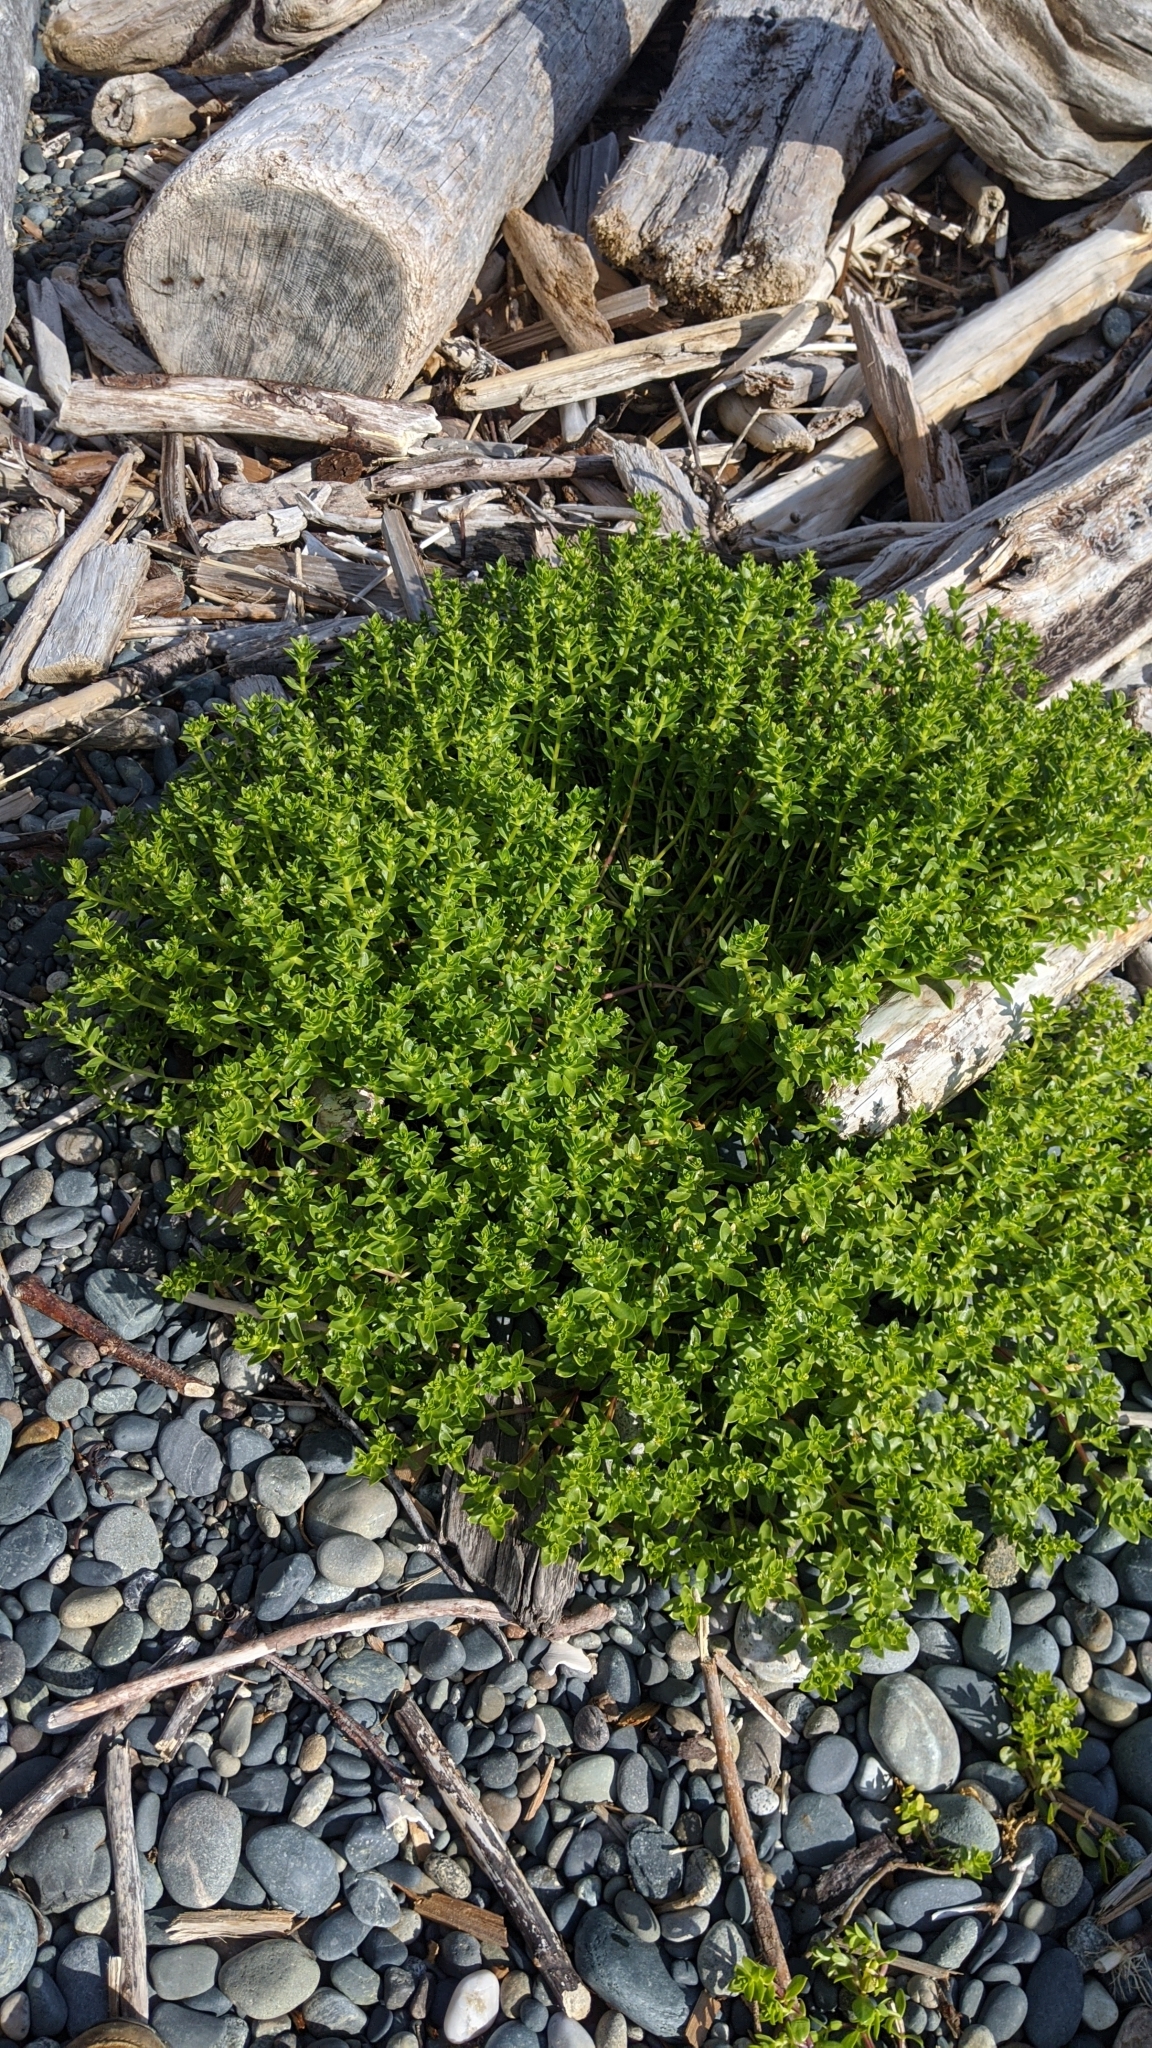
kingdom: Plantae
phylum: Tracheophyta
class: Magnoliopsida
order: Caryophyllales
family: Caryophyllaceae
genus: Honckenya
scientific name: Honckenya peploides
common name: Sea sandwort
